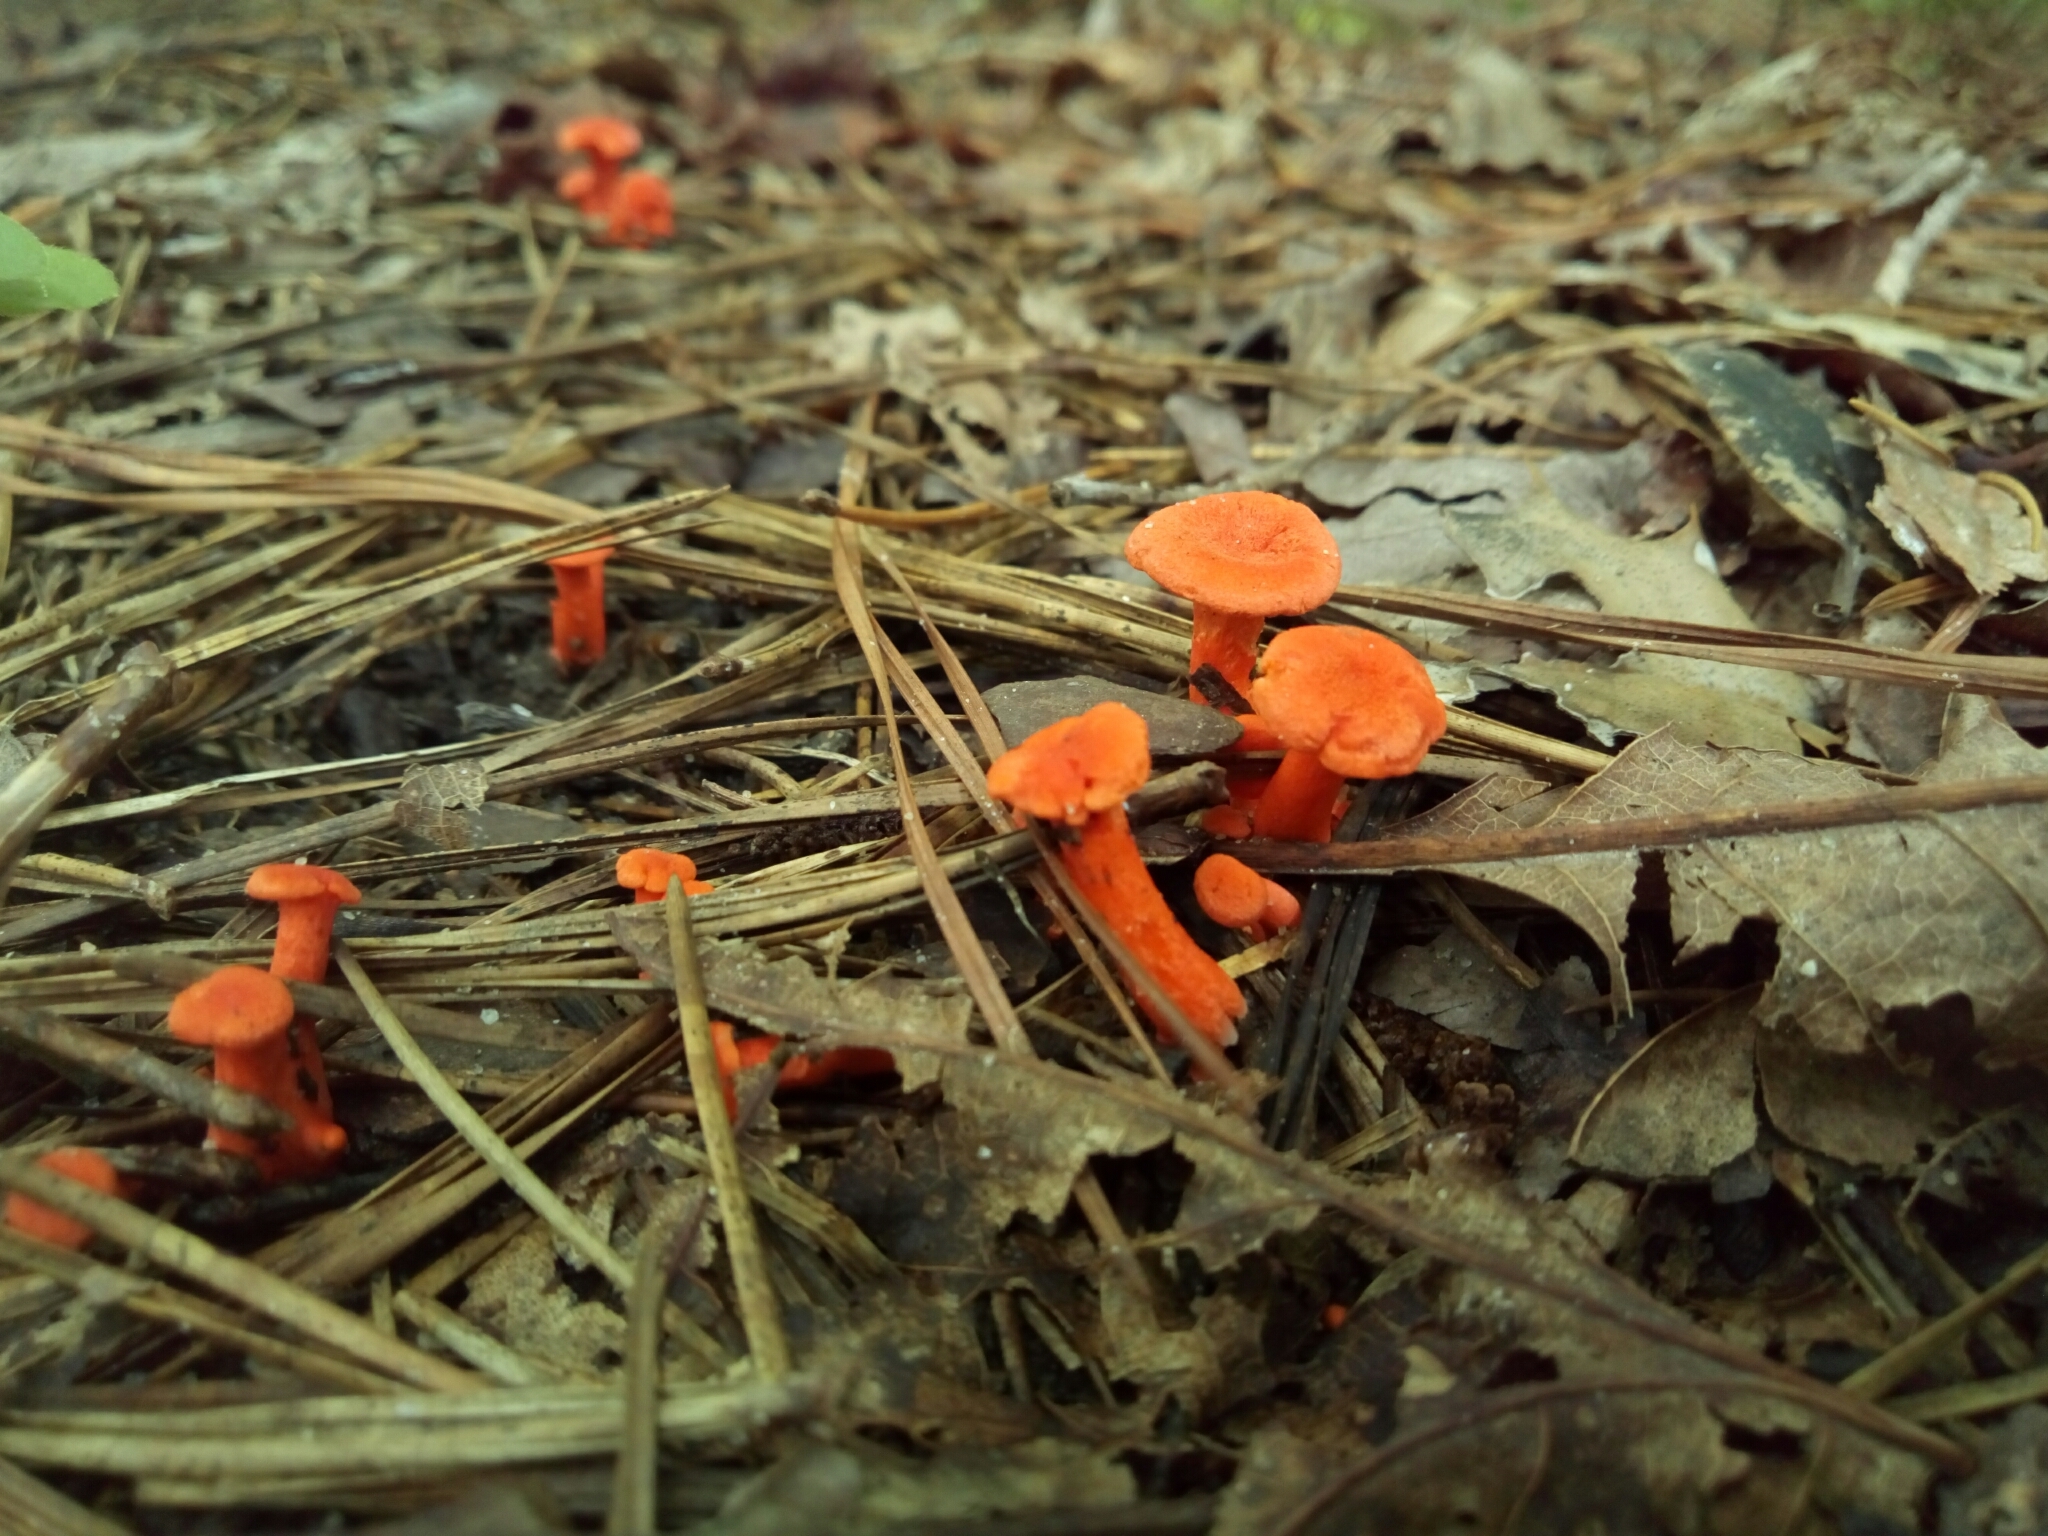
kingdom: Fungi
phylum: Basidiomycota
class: Agaricomycetes
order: Cantharellales
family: Hydnaceae
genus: Cantharellus
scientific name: Cantharellus cinnabarinus
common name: Cinnabar chanterelle
